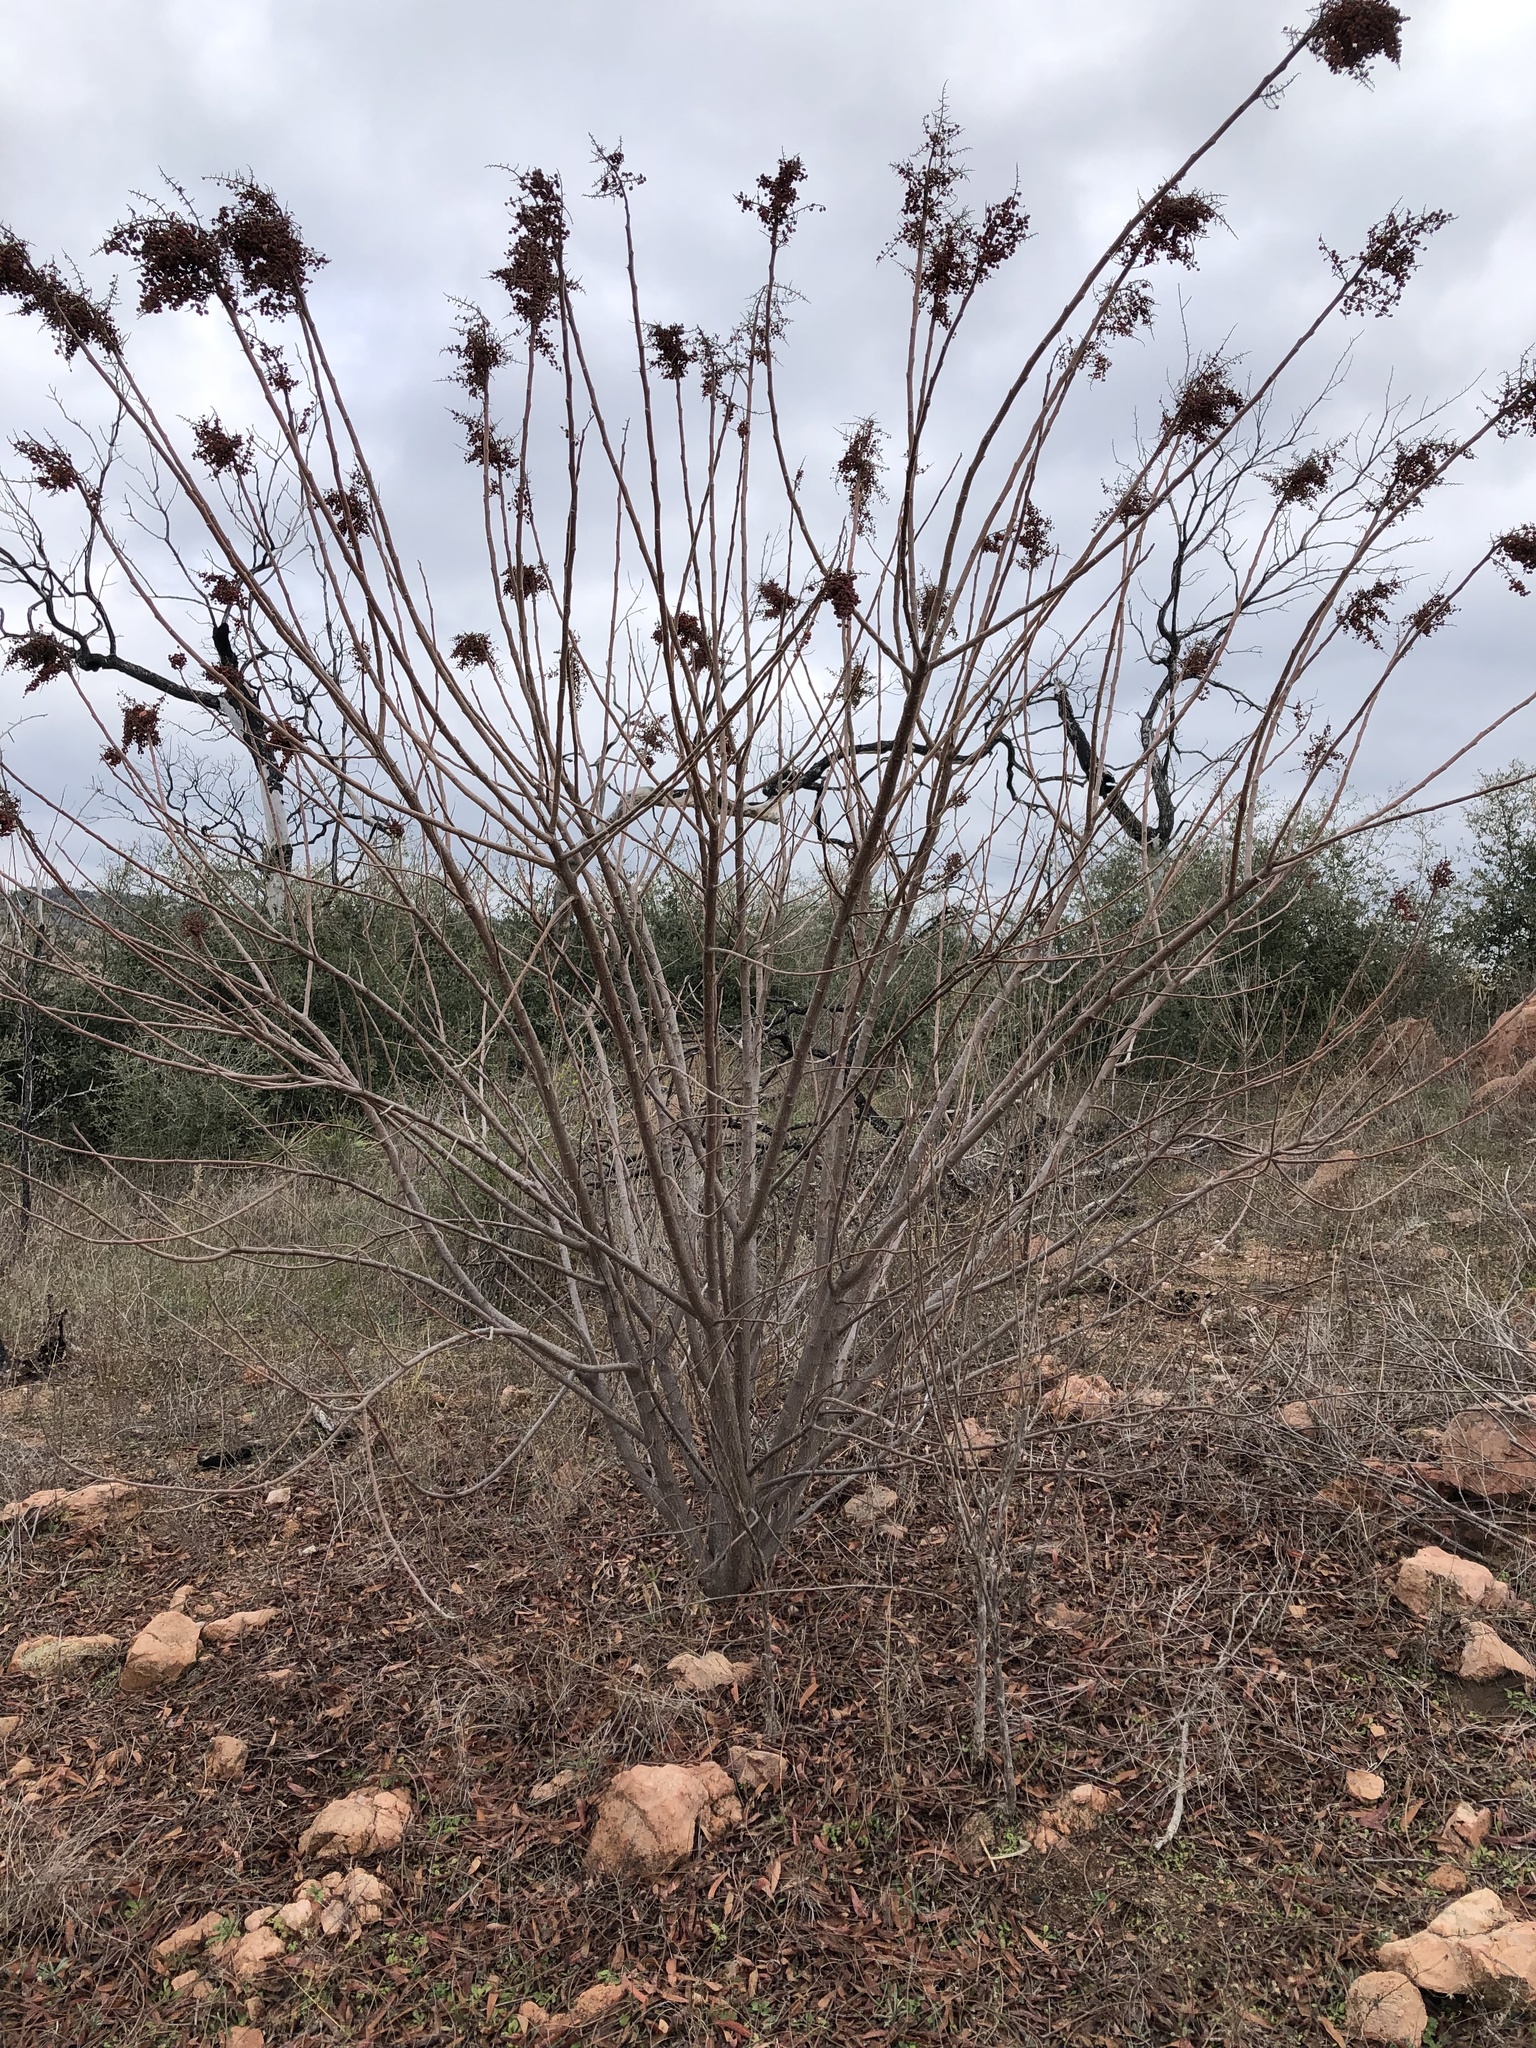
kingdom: Plantae
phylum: Tracheophyta
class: Magnoliopsida
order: Sapindales
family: Anacardiaceae
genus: Rhus
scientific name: Rhus lanceolata
